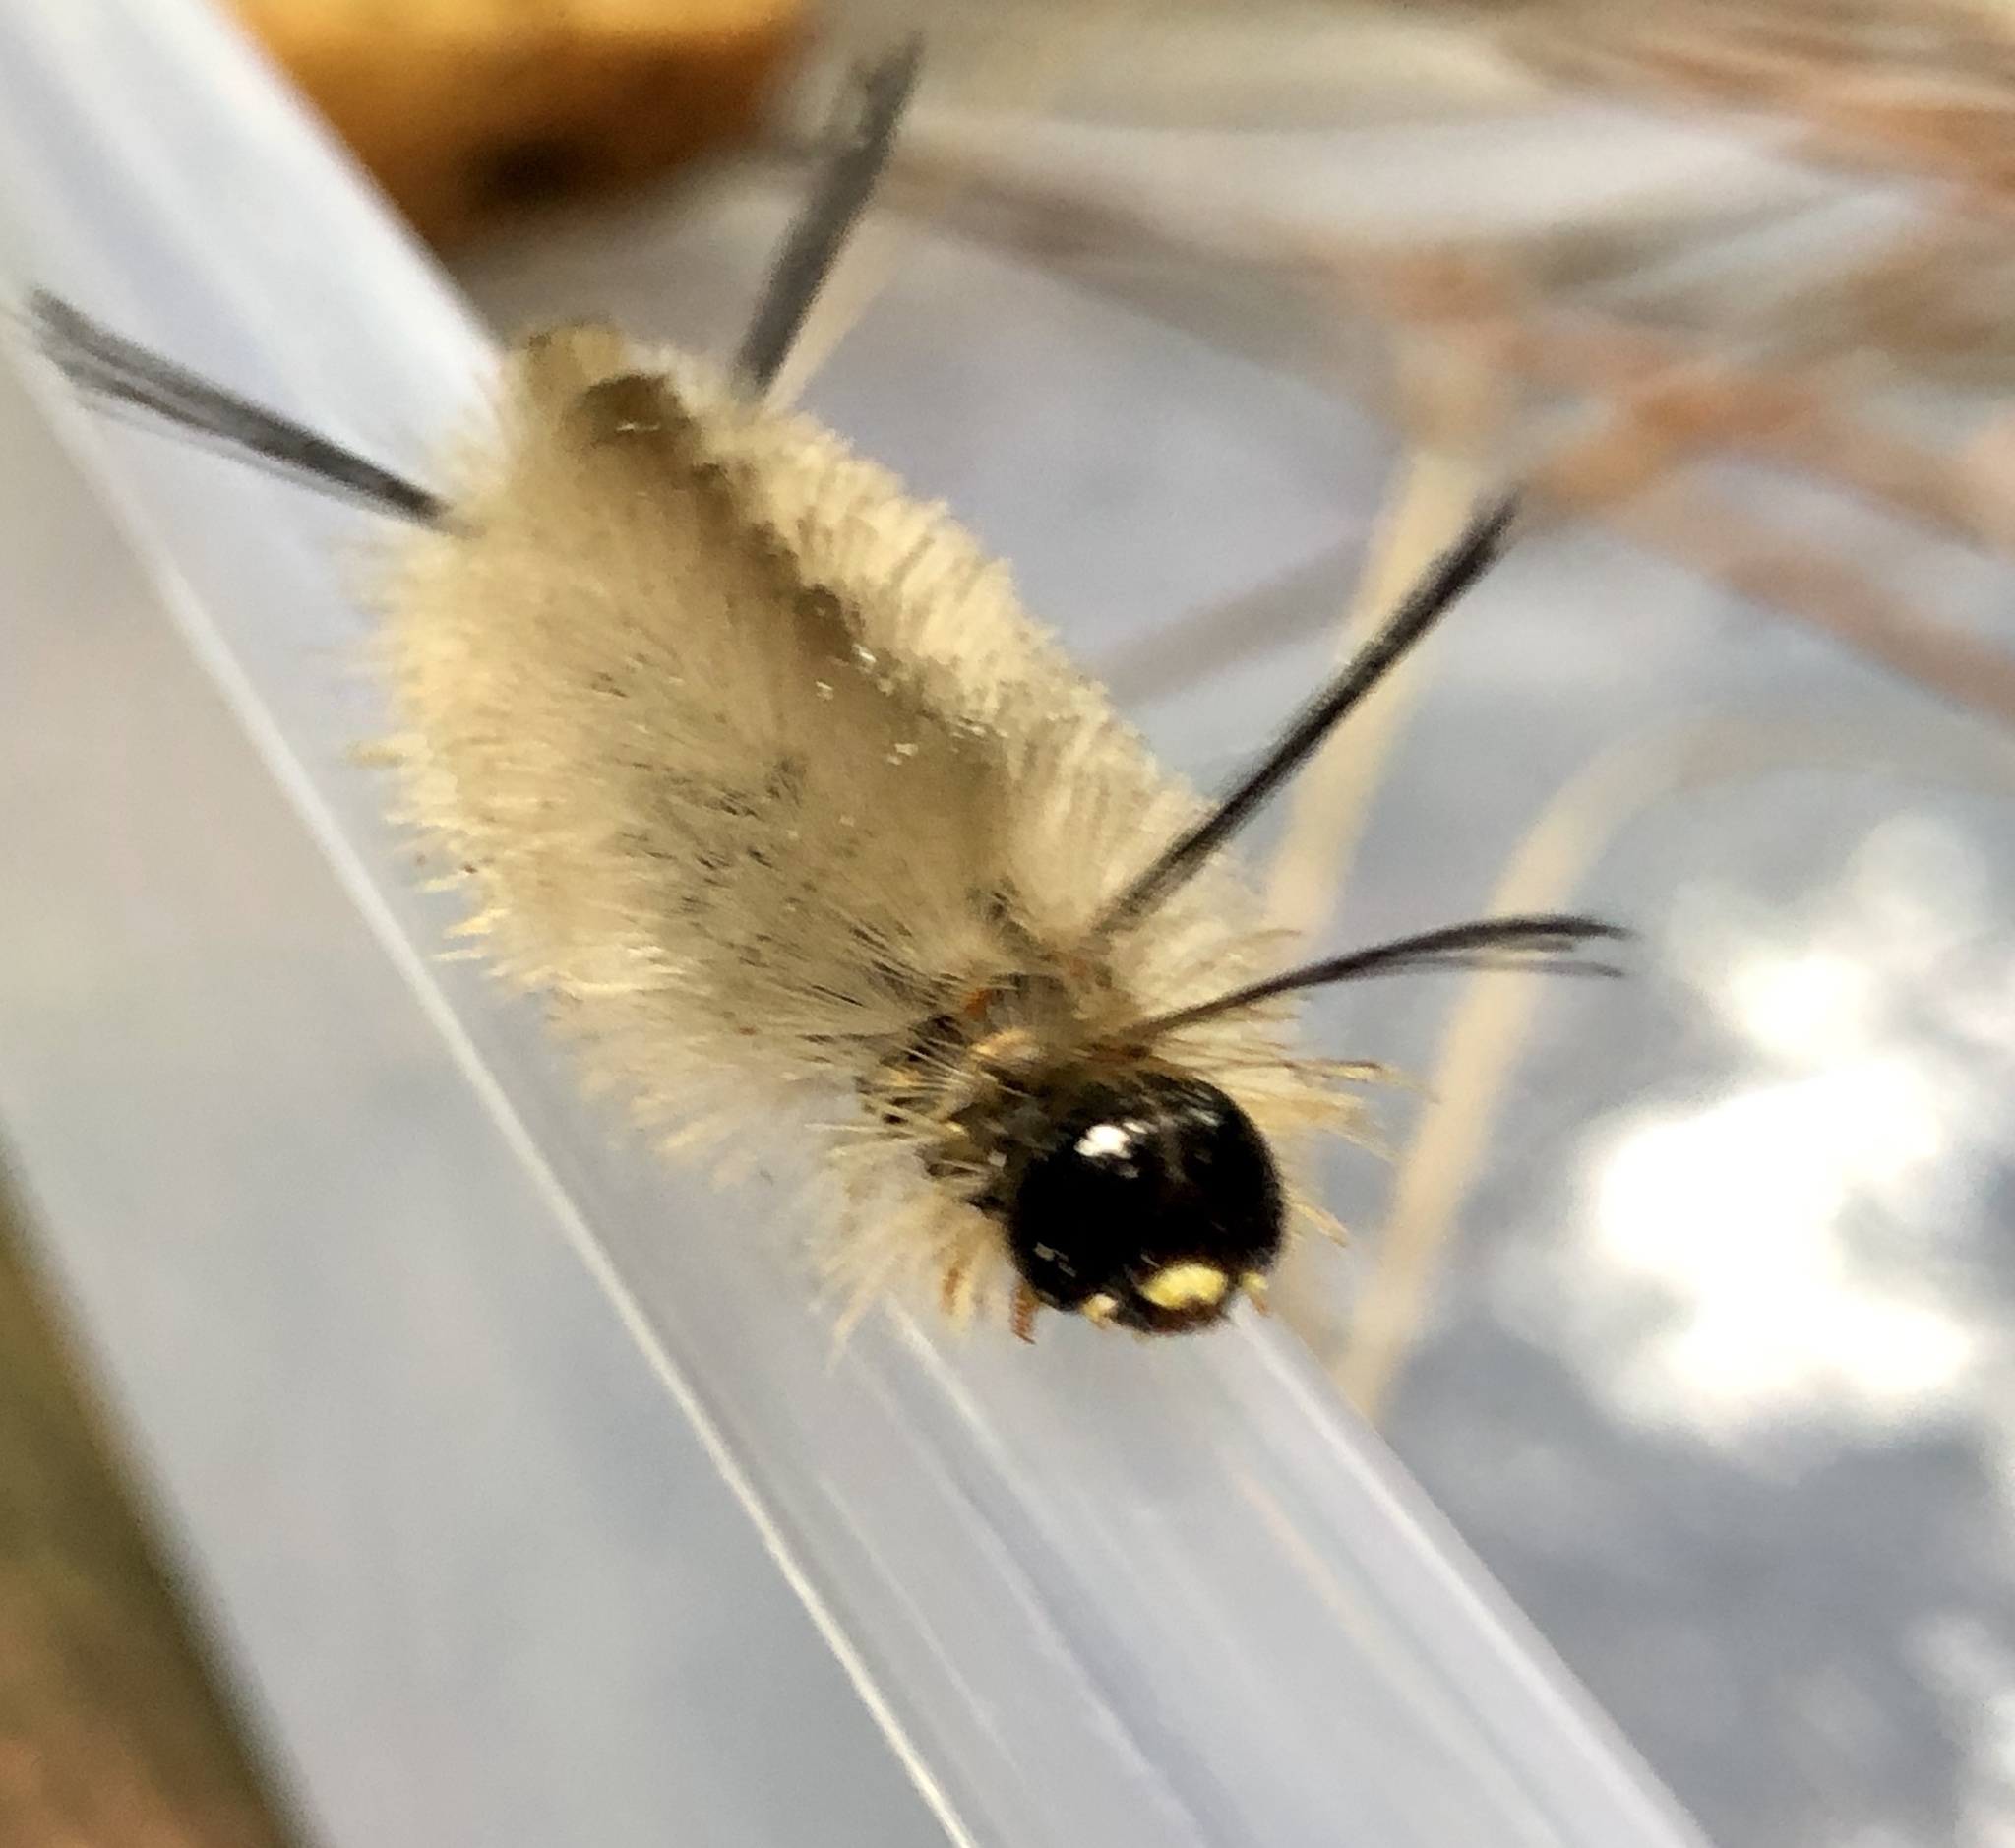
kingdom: Animalia
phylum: Arthropoda
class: Insecta
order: Lepidoptera
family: Erebidae
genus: Halysidota
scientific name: Halysidota tessellaris
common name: Banded tussock moth
